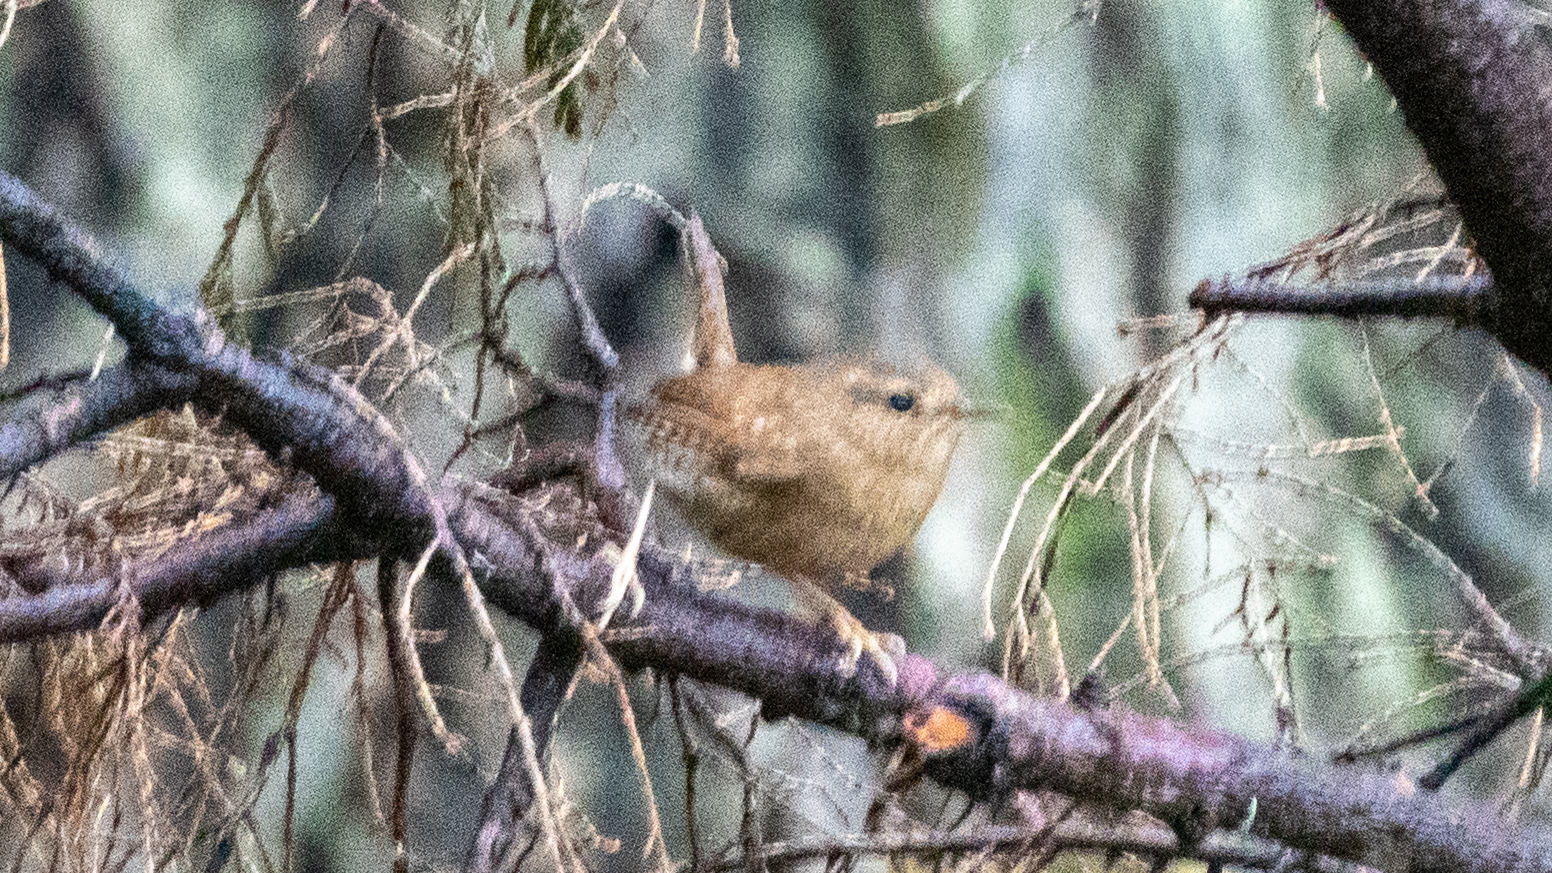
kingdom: Animalia
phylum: Chordata
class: Aves
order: Passeriformes
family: Troglodytidae
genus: Troglodytes
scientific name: Troglodytes pacificus
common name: Pacific wren
